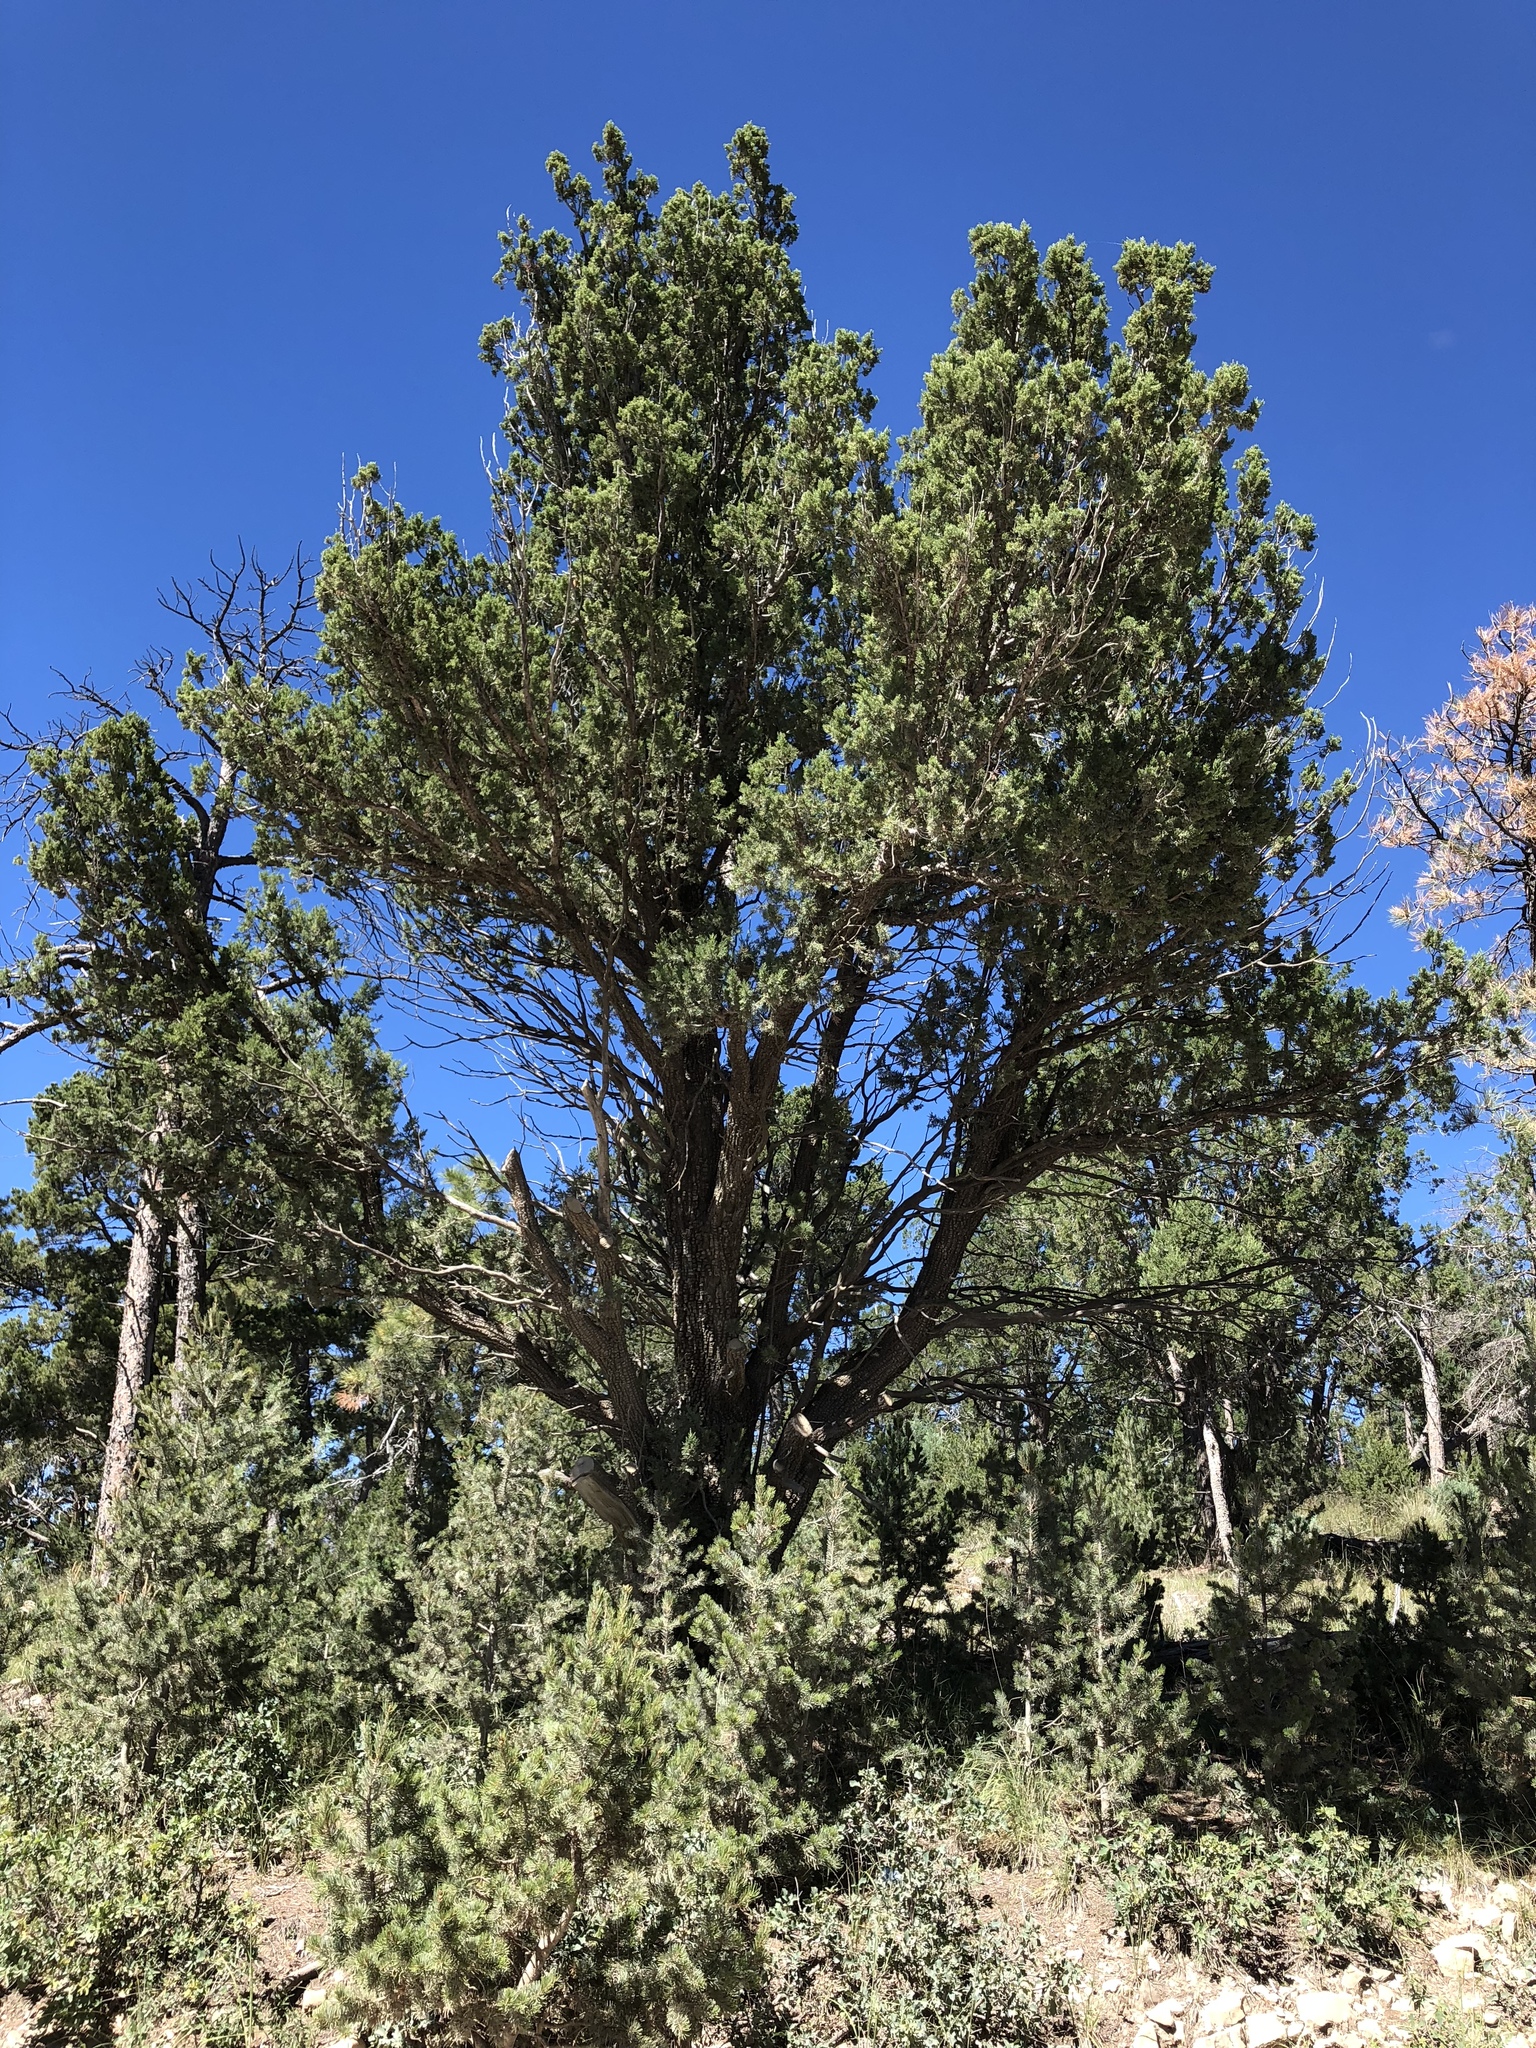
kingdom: Plantae
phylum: Tracheophyta
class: Pinopsida
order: Pinales
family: Cupressaceae
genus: Juniperus
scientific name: Juniperus deppeana
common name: Alligator juniper
